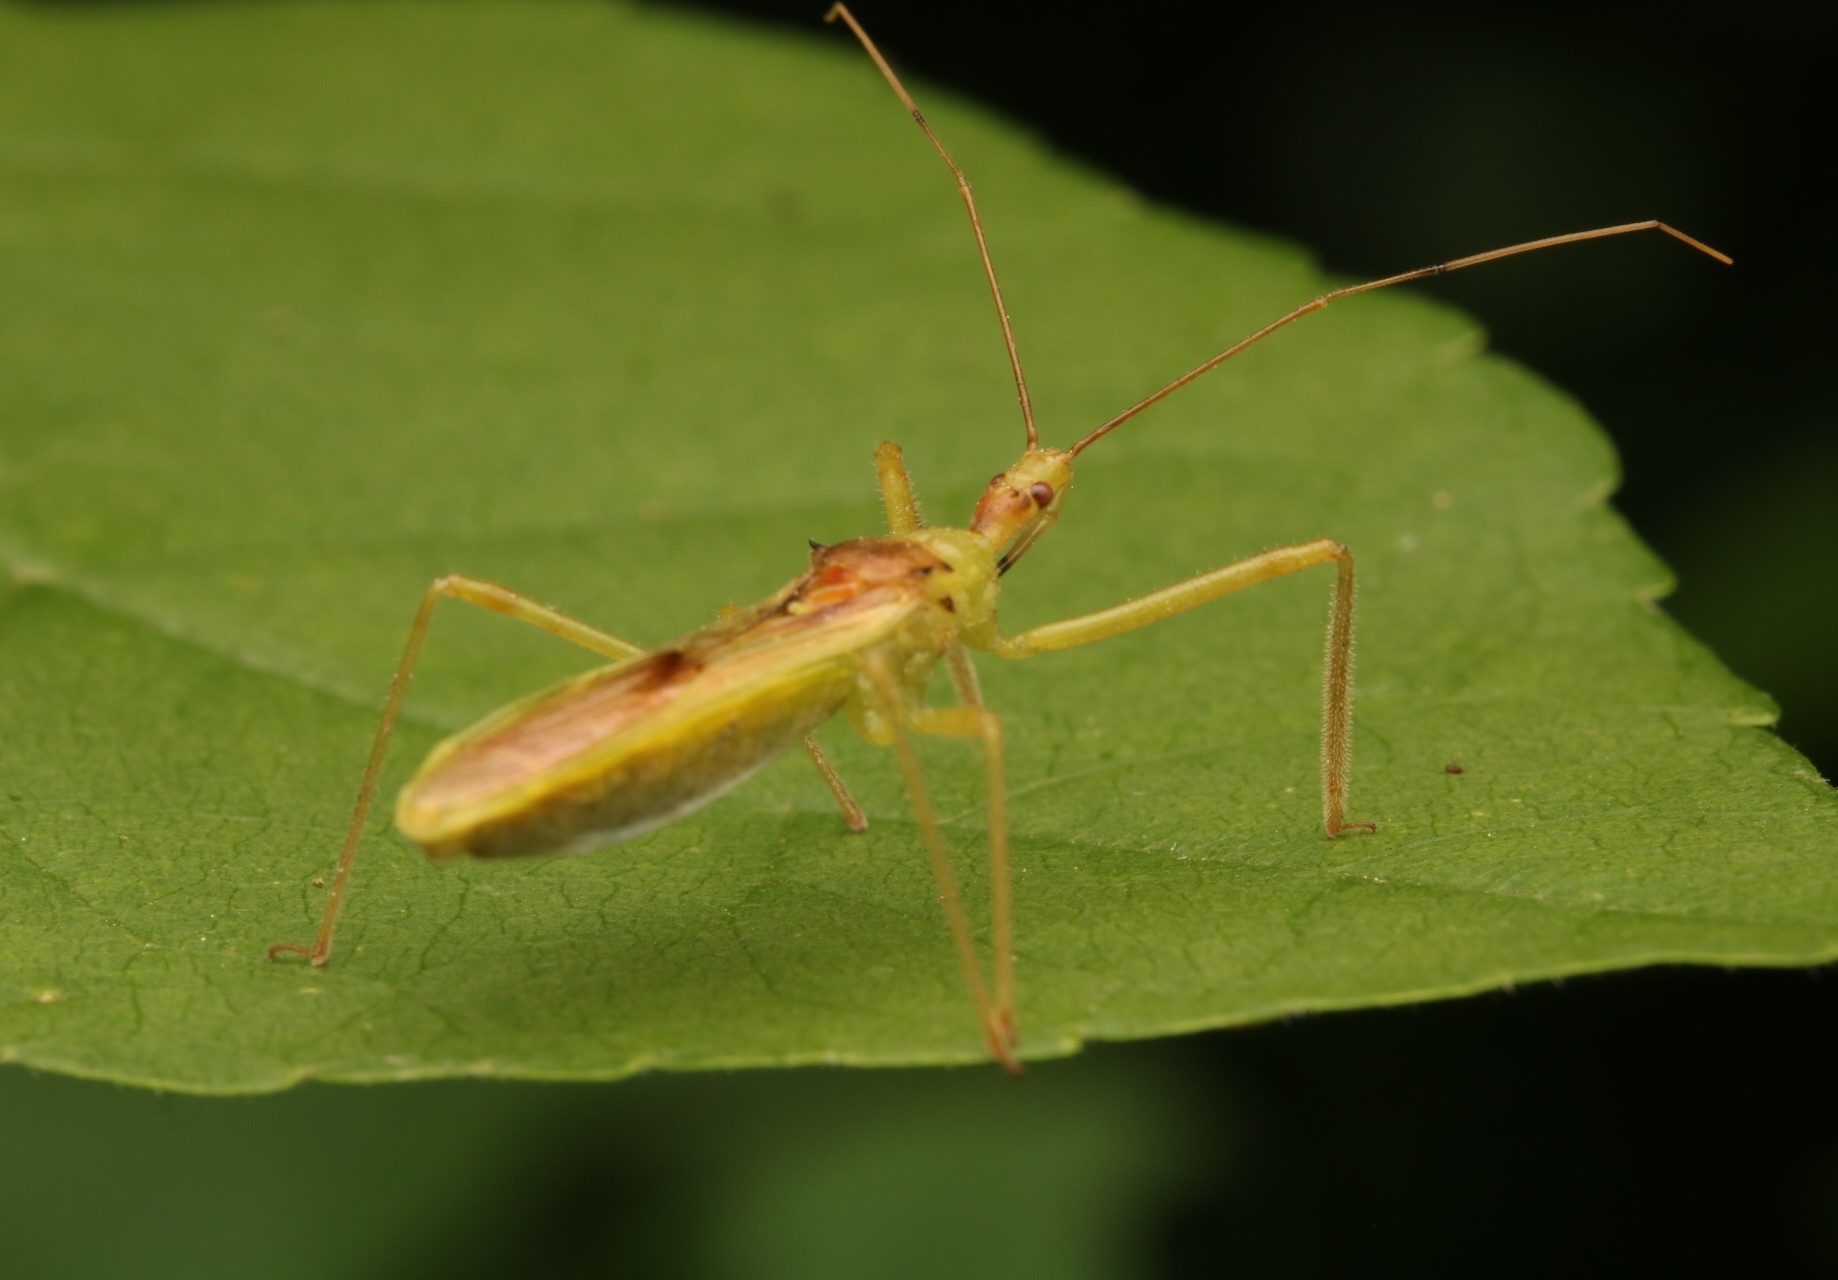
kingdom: Animalia
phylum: Arthropoda
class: Insecta
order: Hemiptera
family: Reduviidae
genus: Zelus
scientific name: Zelus luridus
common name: Pale green assassin bug
